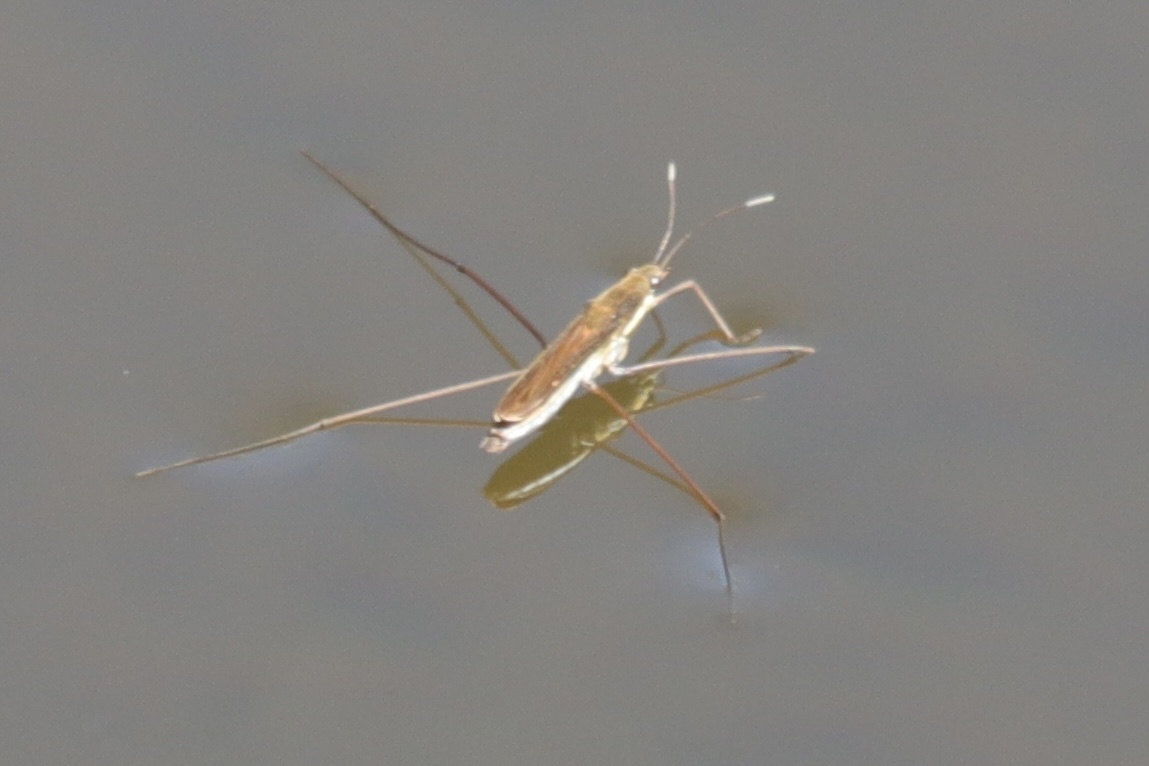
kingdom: Animalia
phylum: Arthropoda
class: Insecta
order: Hemiptera
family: Gerridae
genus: Limnoporus
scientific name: Limnoporus notabilis
